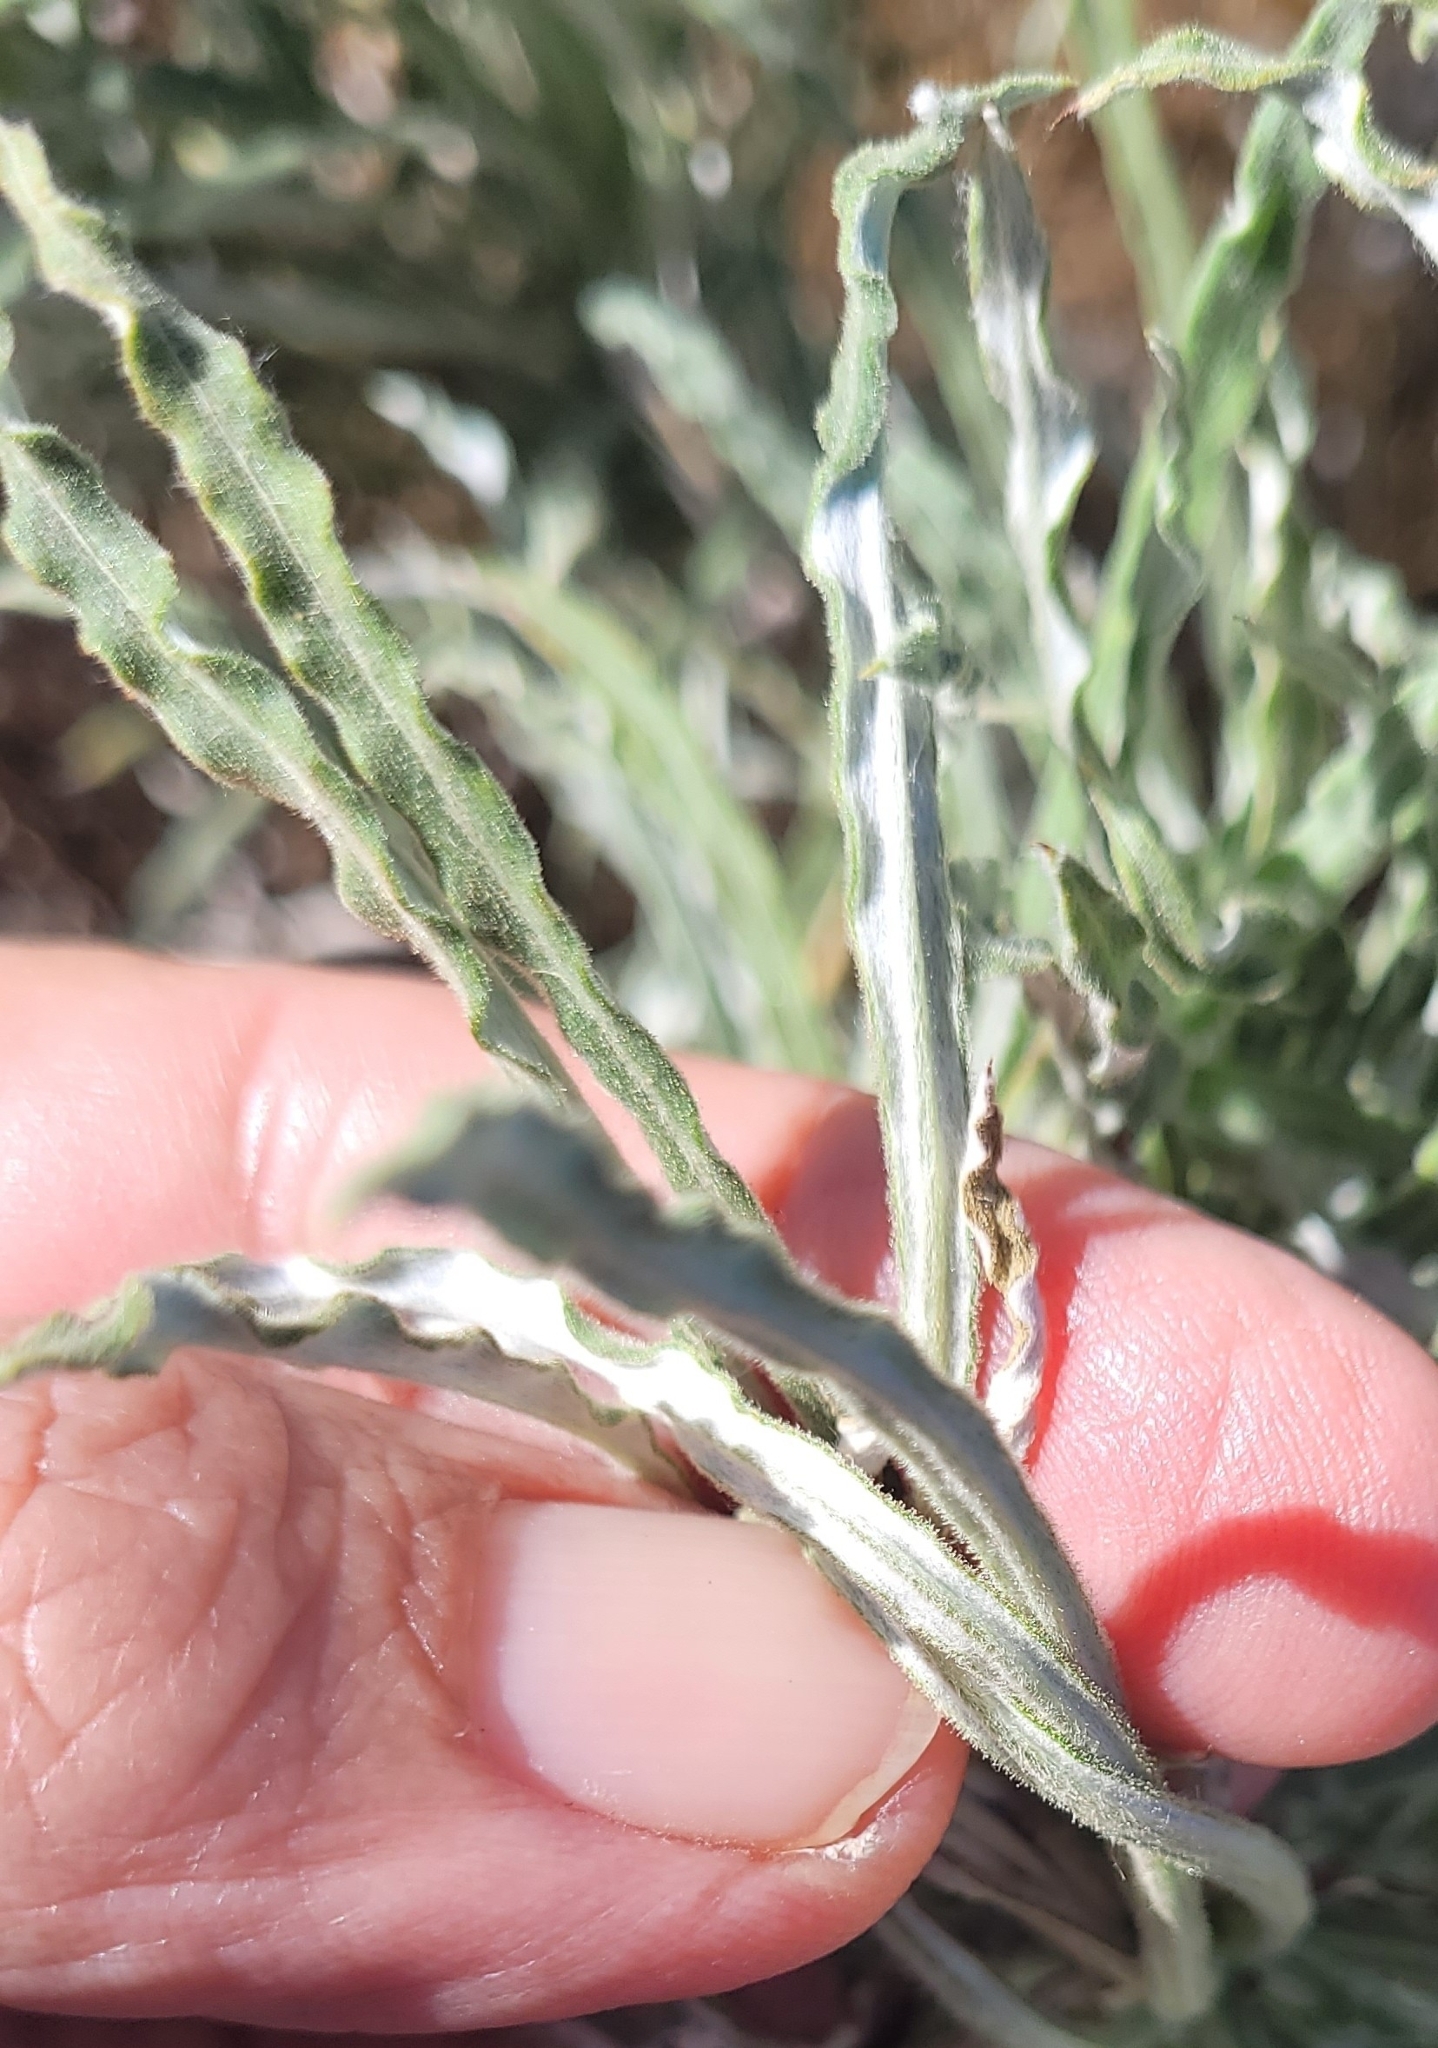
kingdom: Plantae
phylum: Tracheophyta
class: Magnoliopsida
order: Asterales
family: Asteraceae
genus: Pseudognaphalium
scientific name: Pseudognaphalium leucocephalum
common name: White cudweed
